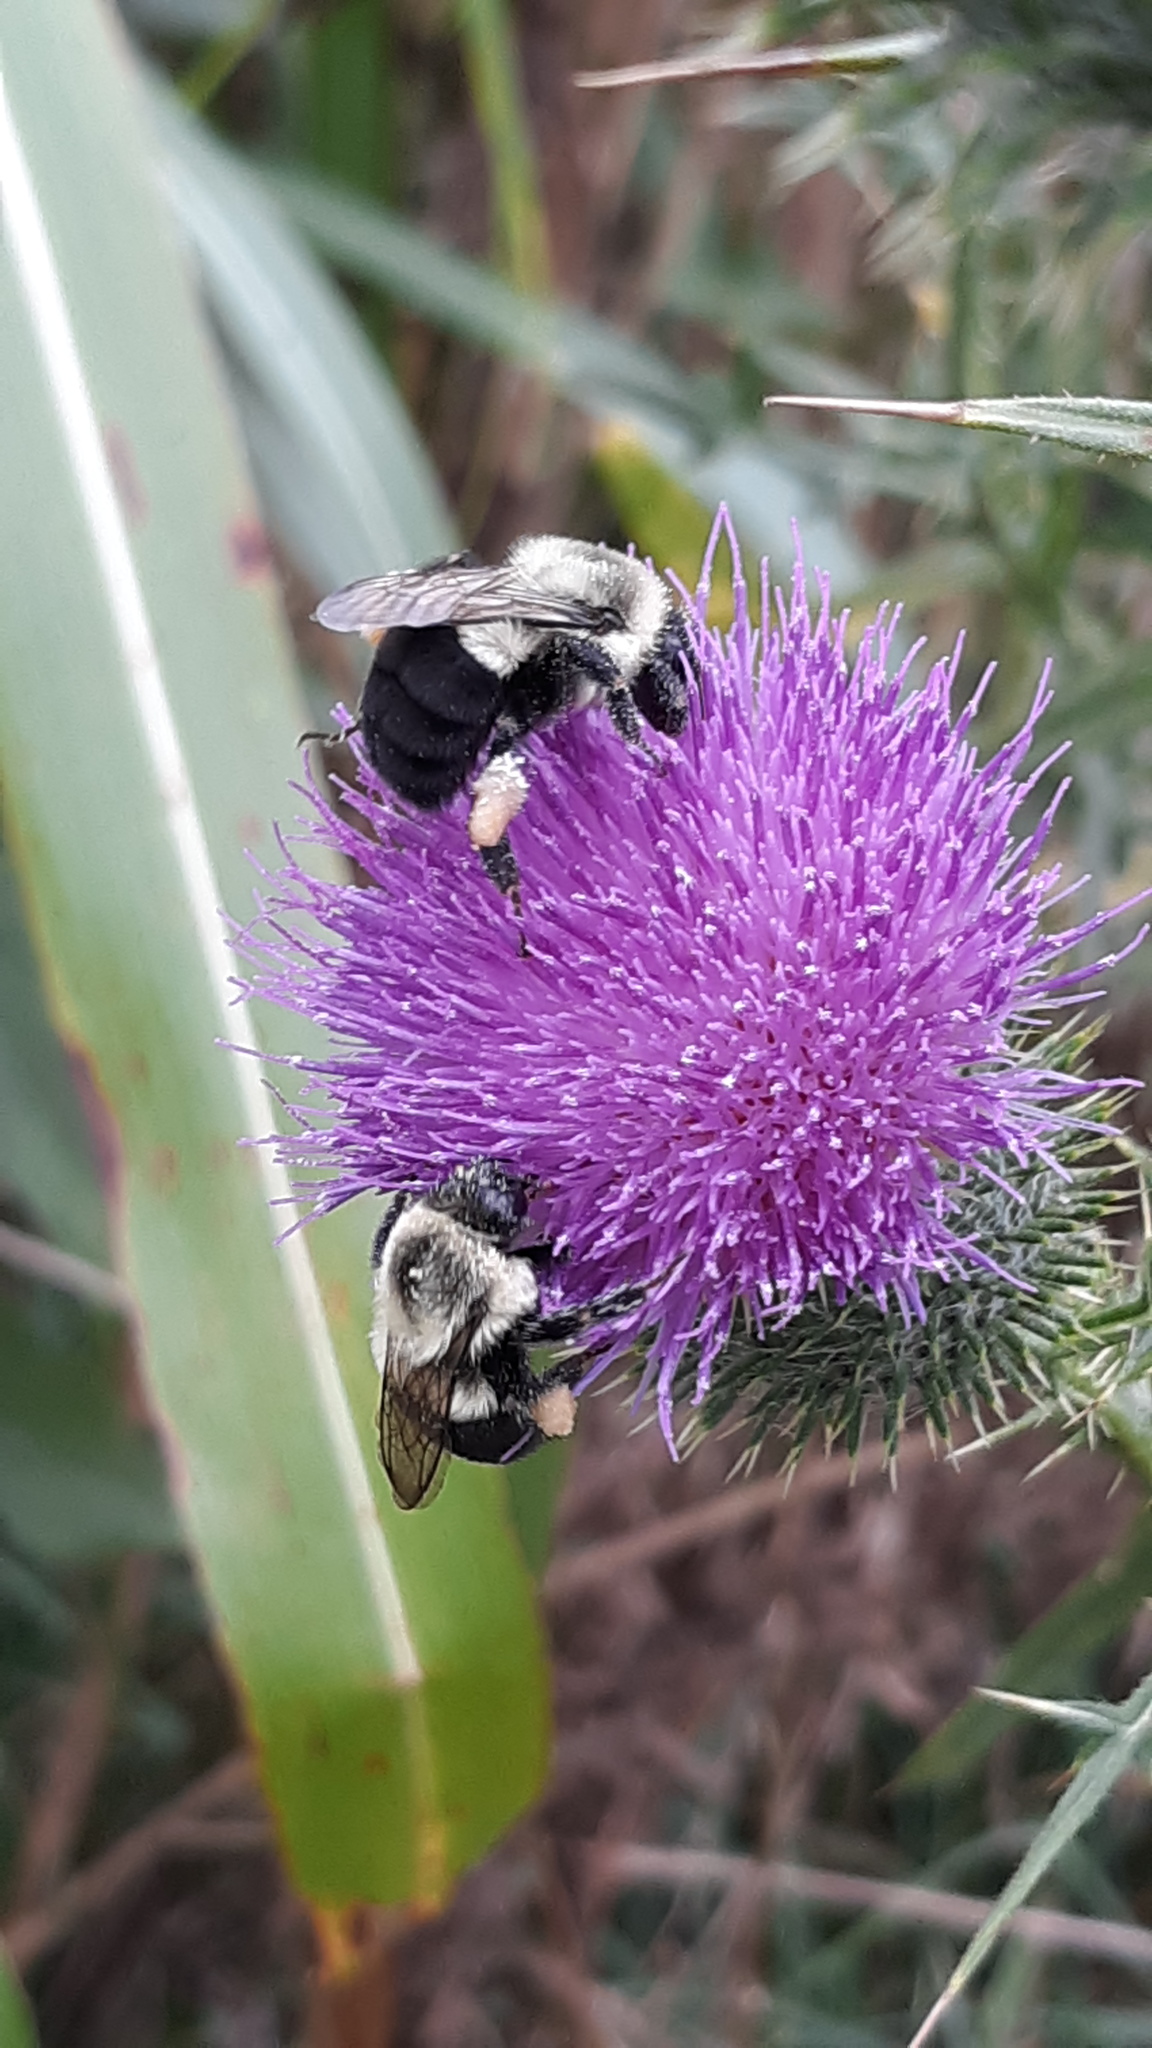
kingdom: Animalia
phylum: Arthropoda
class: Insecta
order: Hymenoptera
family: Apidae
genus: Bombus
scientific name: Bombus impatiens
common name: Common eastern bumble bee
